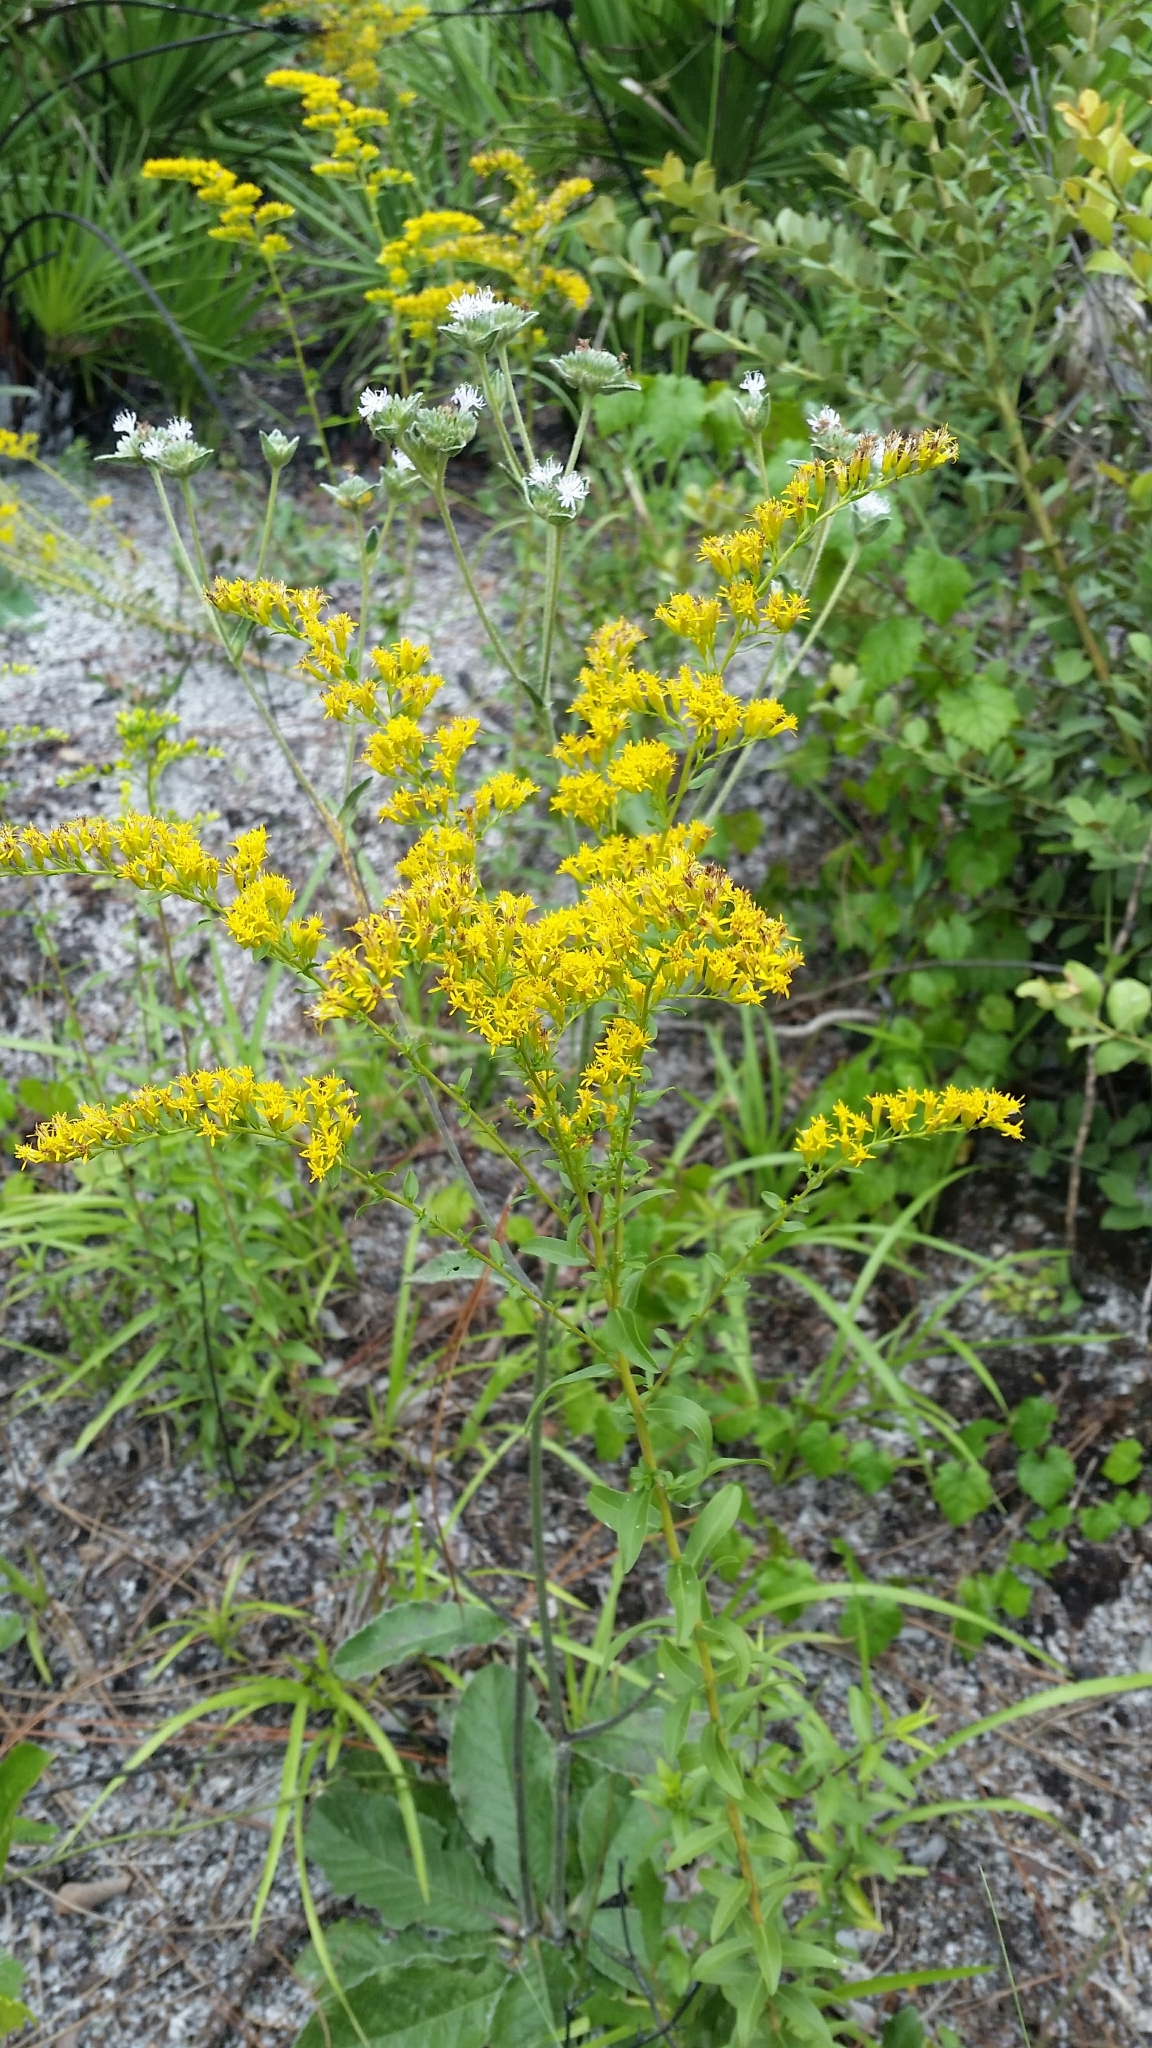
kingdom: Plantae
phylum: Tracheophyta
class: Magnoliopsida
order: Asterales
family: Asteraceae
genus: Solidago
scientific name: Solidago chapmanii
